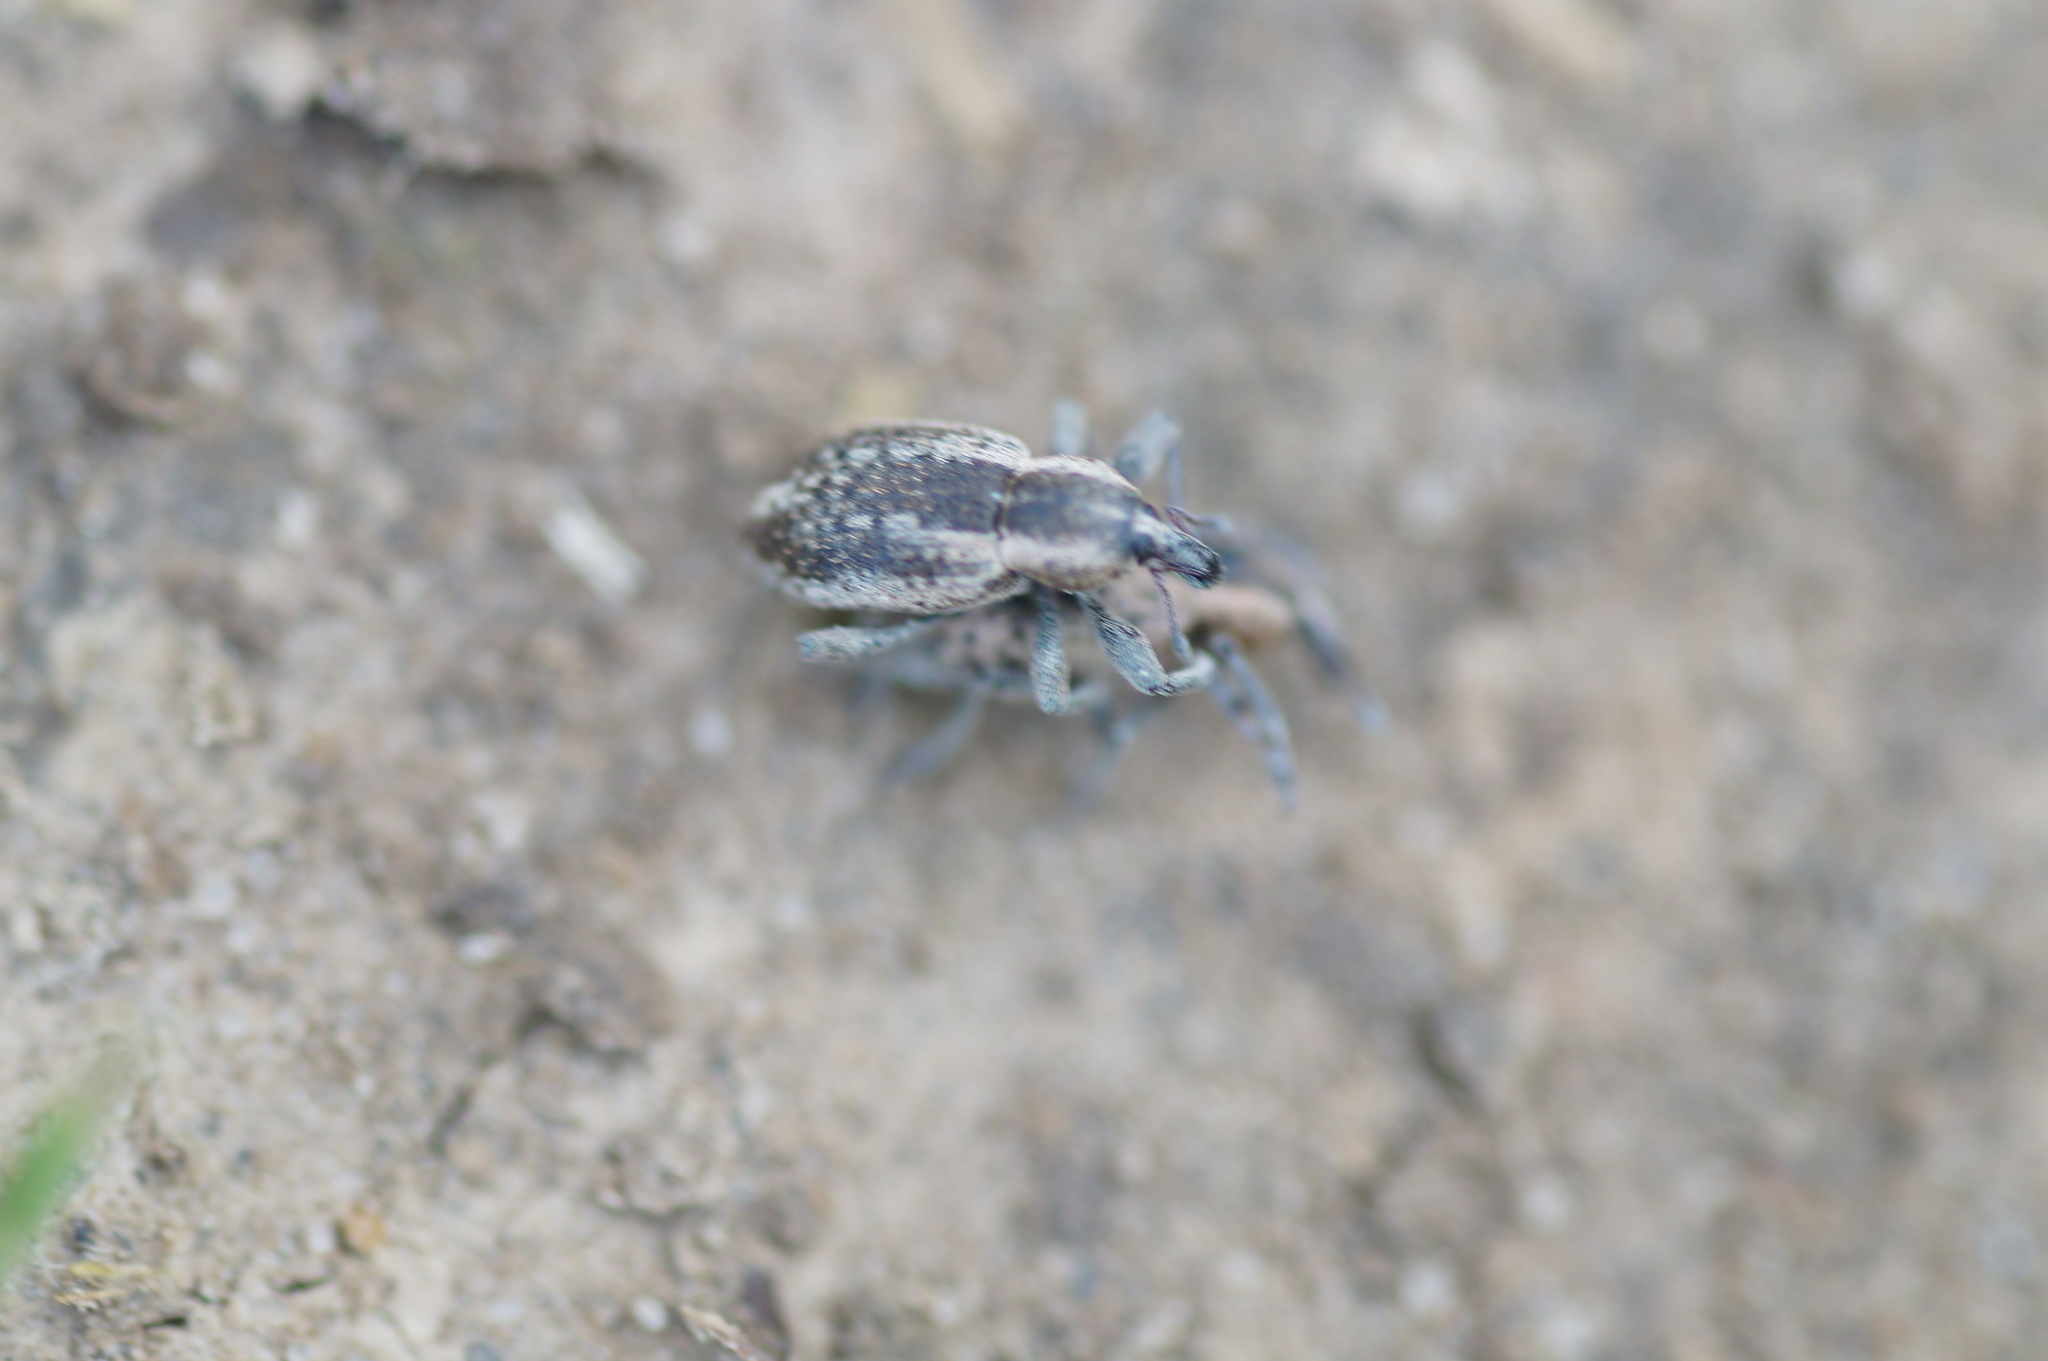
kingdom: Animalia
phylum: Arthropoda
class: Insecta
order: Coleoptera
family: Curculionidae
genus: Hypera
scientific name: Hypera miles
